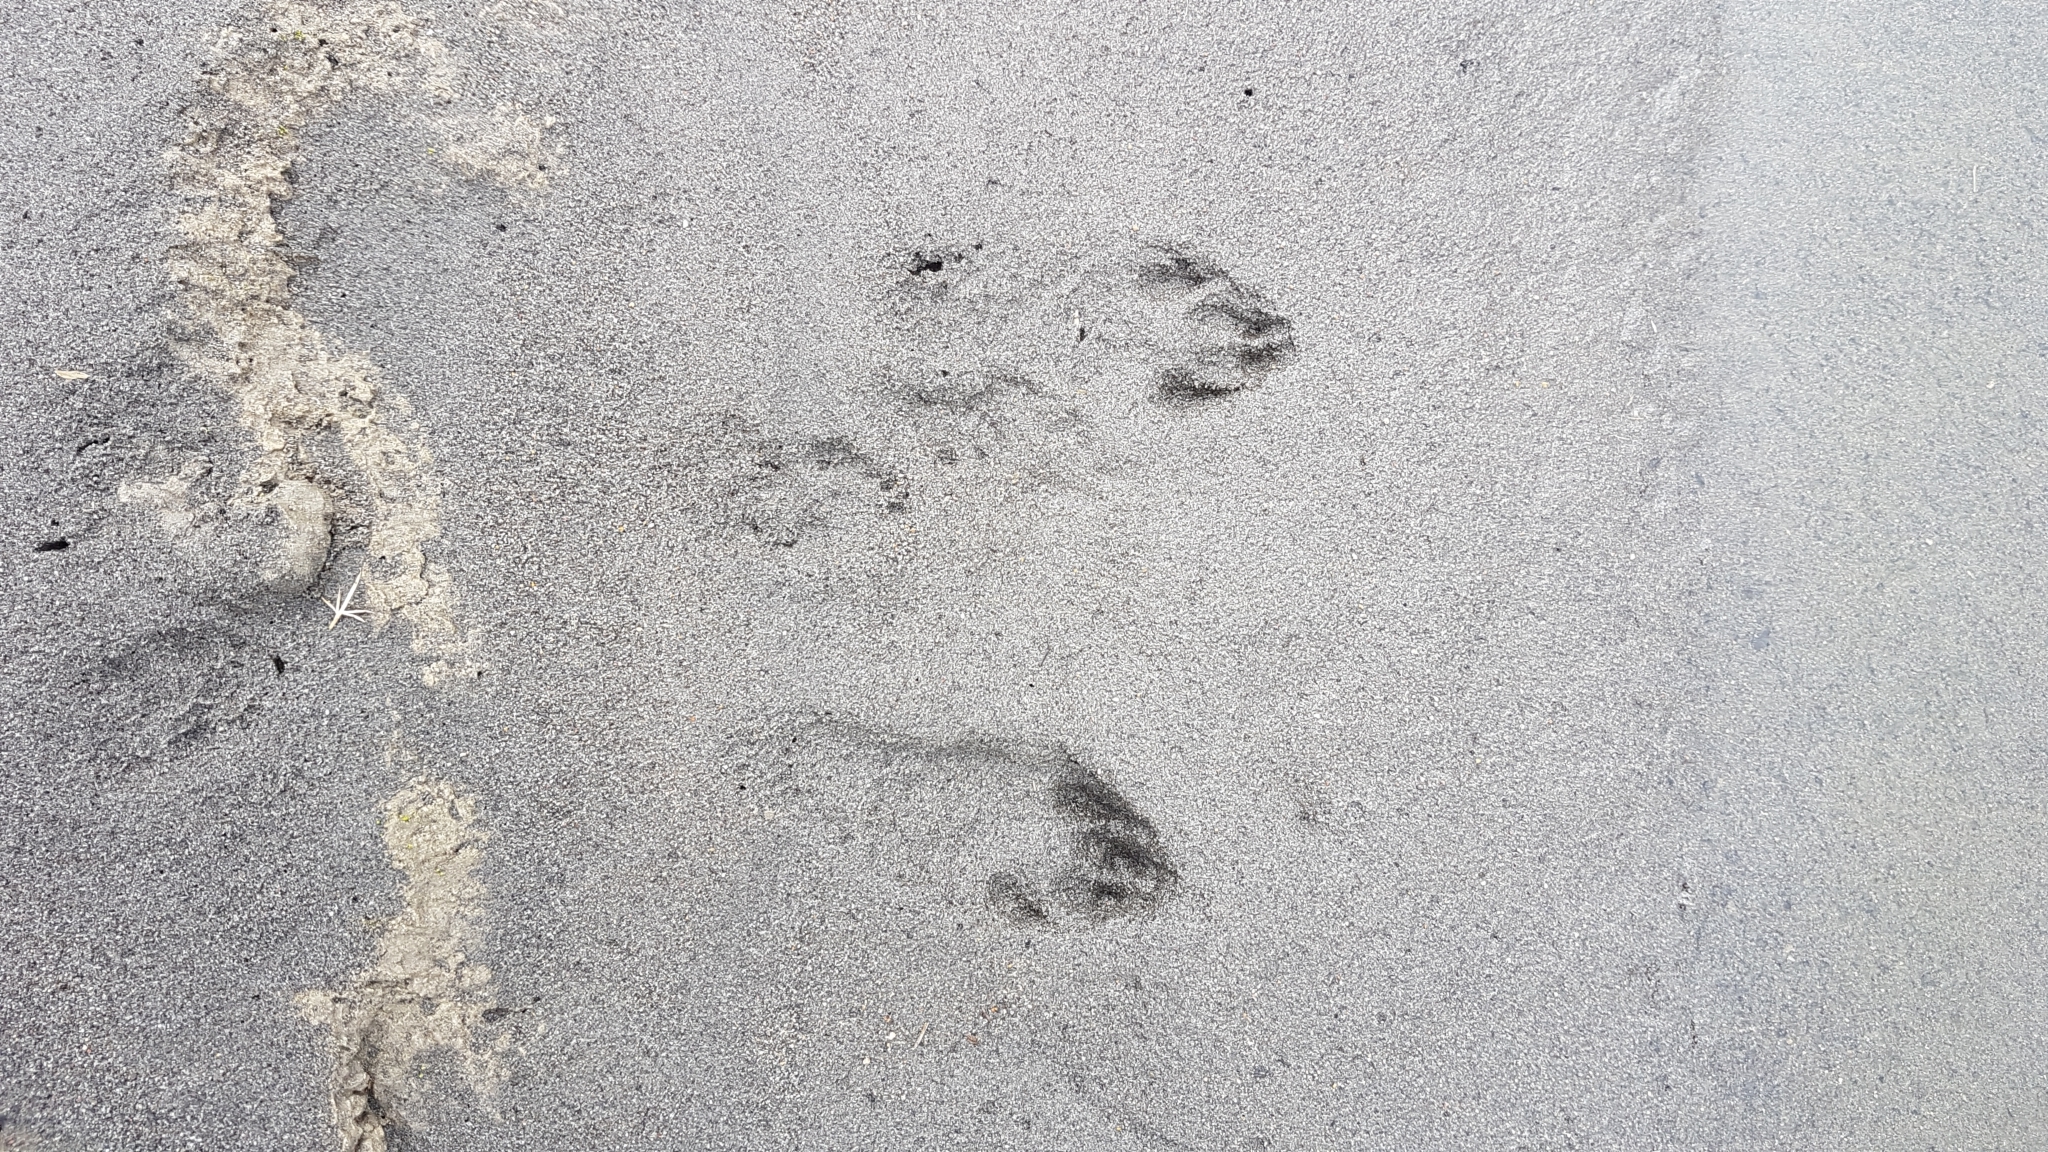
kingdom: Animalia
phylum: Chordata
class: Mammalia
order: Lagomorpha
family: Leporidae
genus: Oryctolagus
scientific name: Oryctolagus cuniculus
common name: European rabbit
